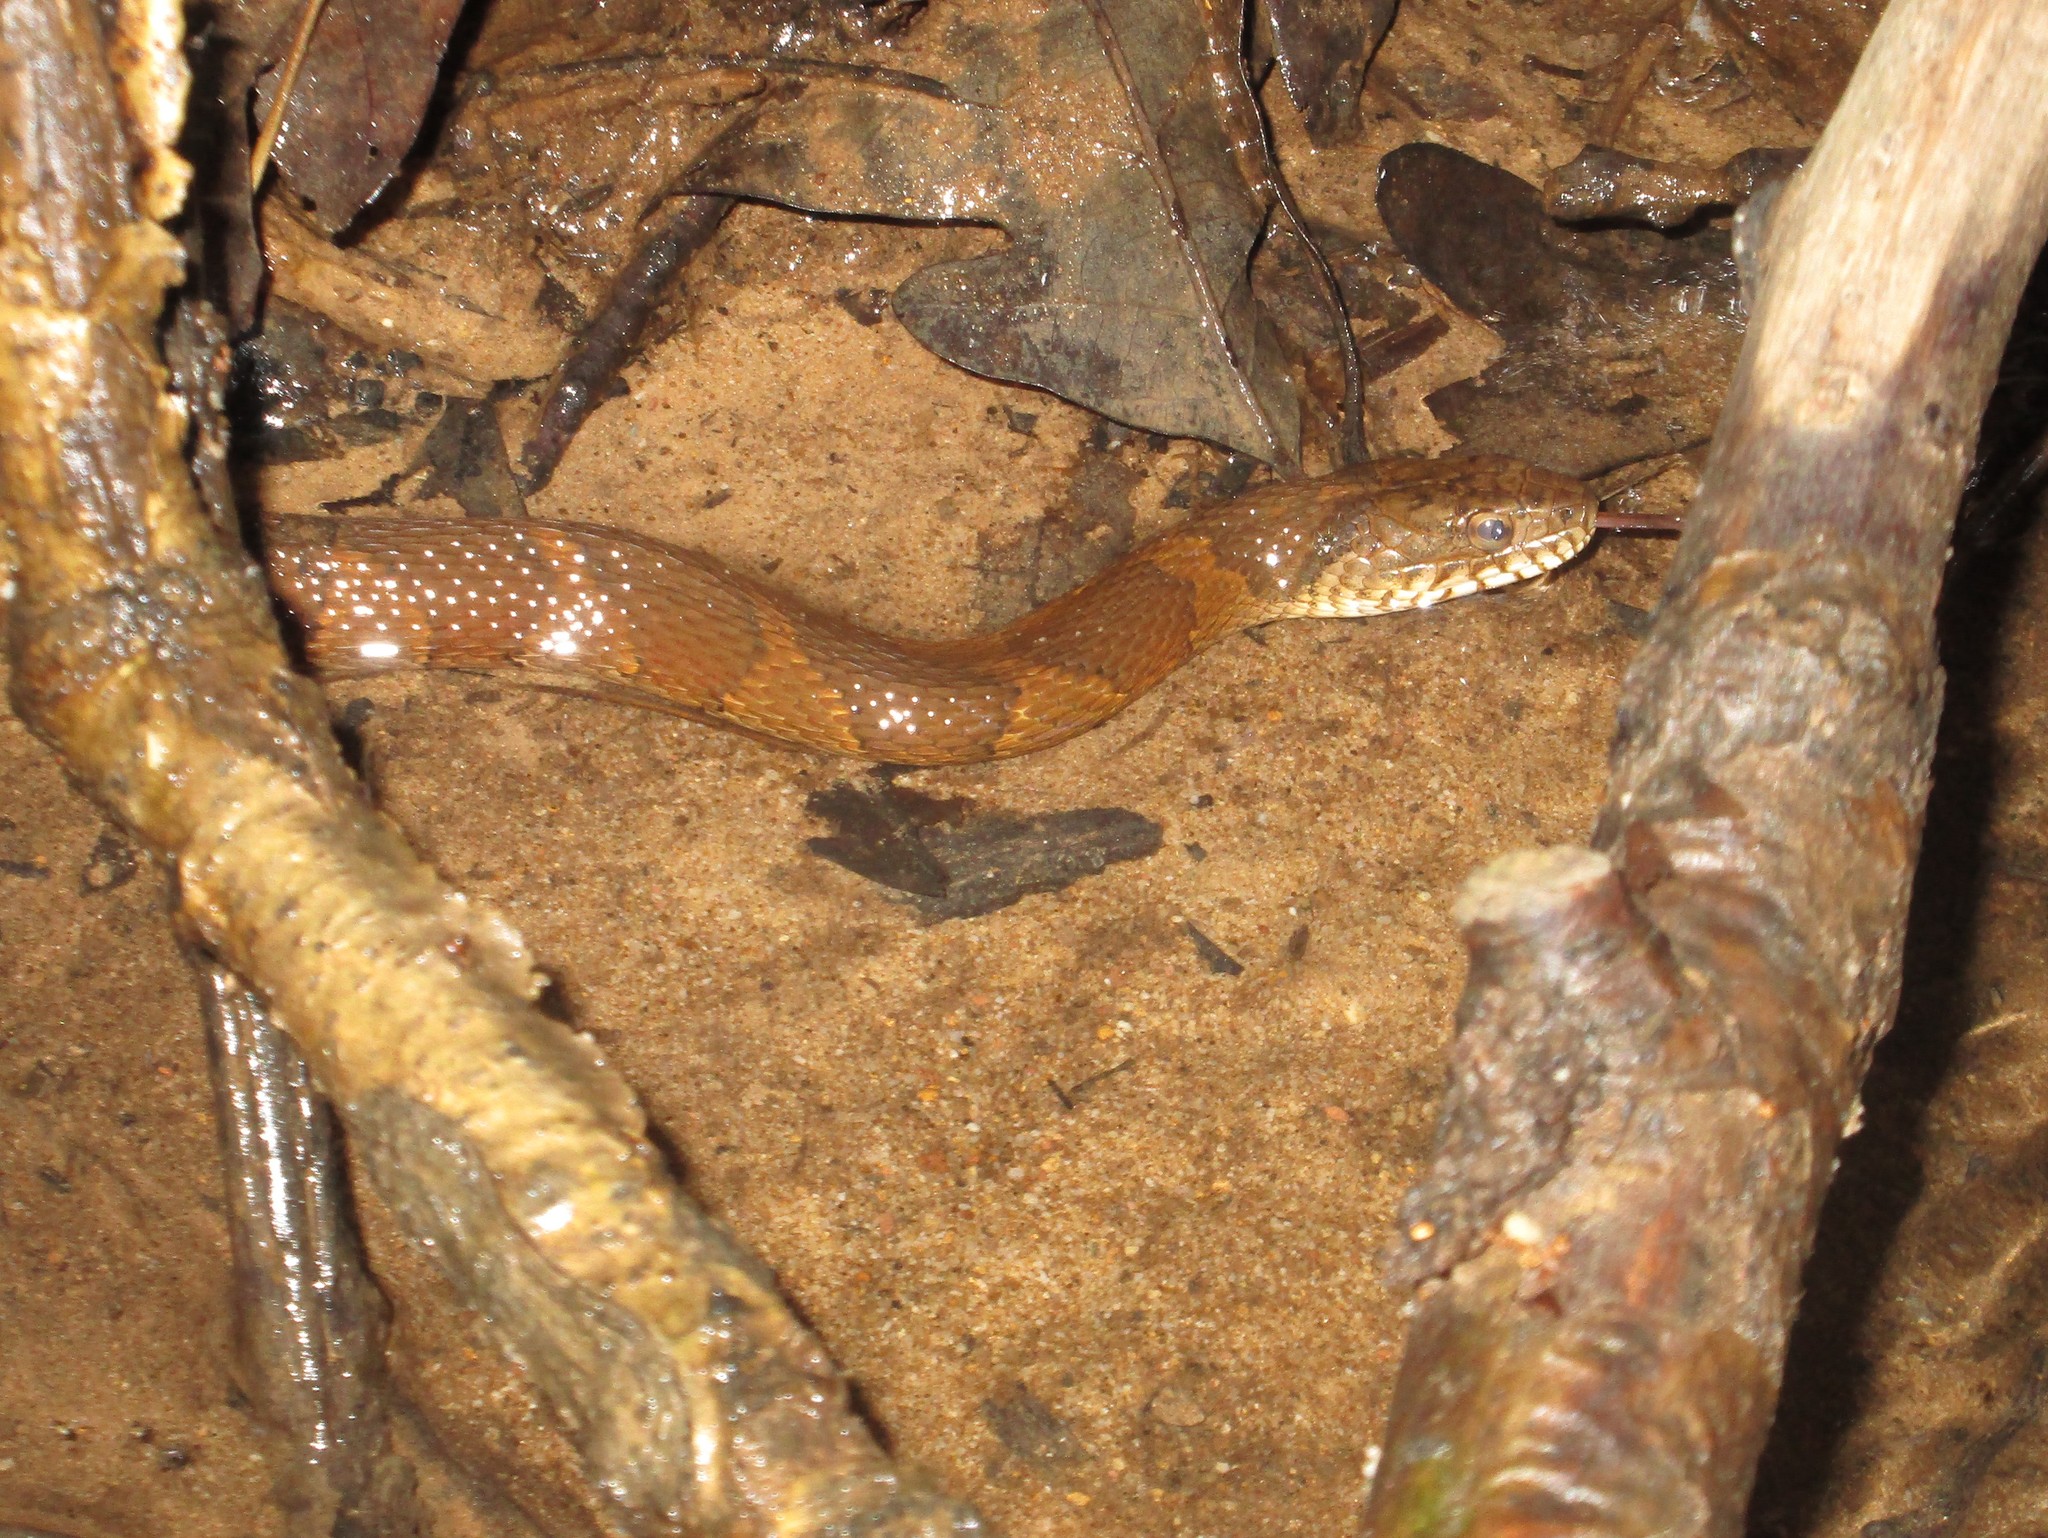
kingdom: Animalia
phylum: Chordata
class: Squamata
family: Colubridae
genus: Nerodia
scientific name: Nerodia sipedon
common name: Northern water snake
